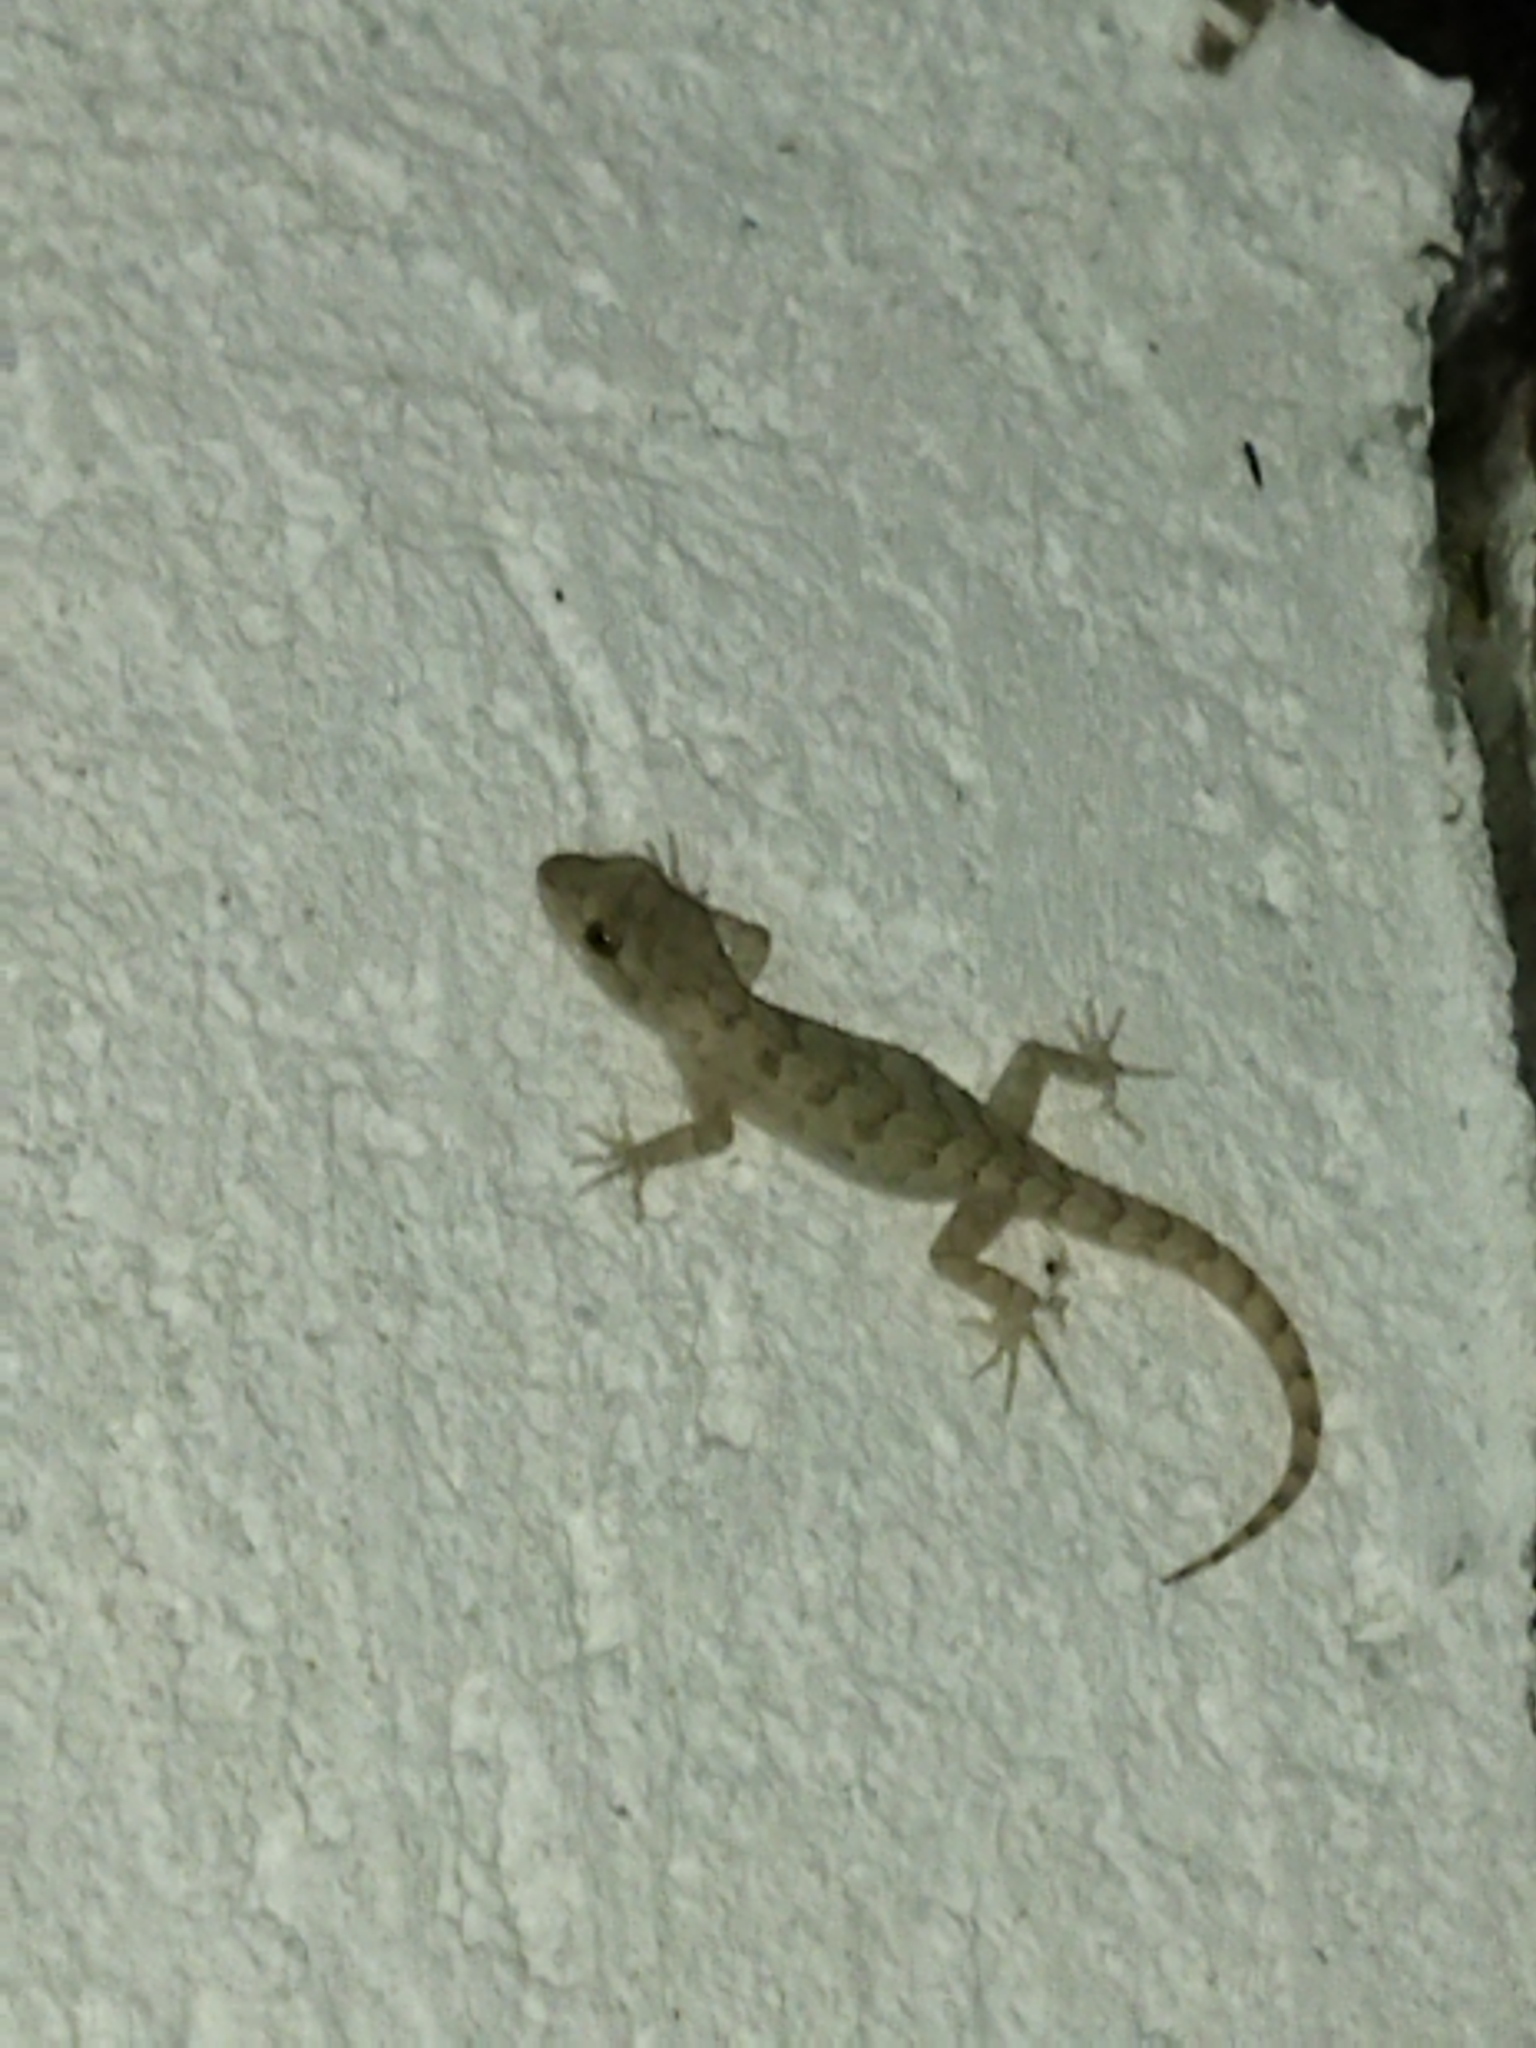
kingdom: Animalia
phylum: Chordata
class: Squamata
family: Gekkonidae
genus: Mediodactylus
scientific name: Mediodactylus kotschyi
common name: Kotschy's gecko
